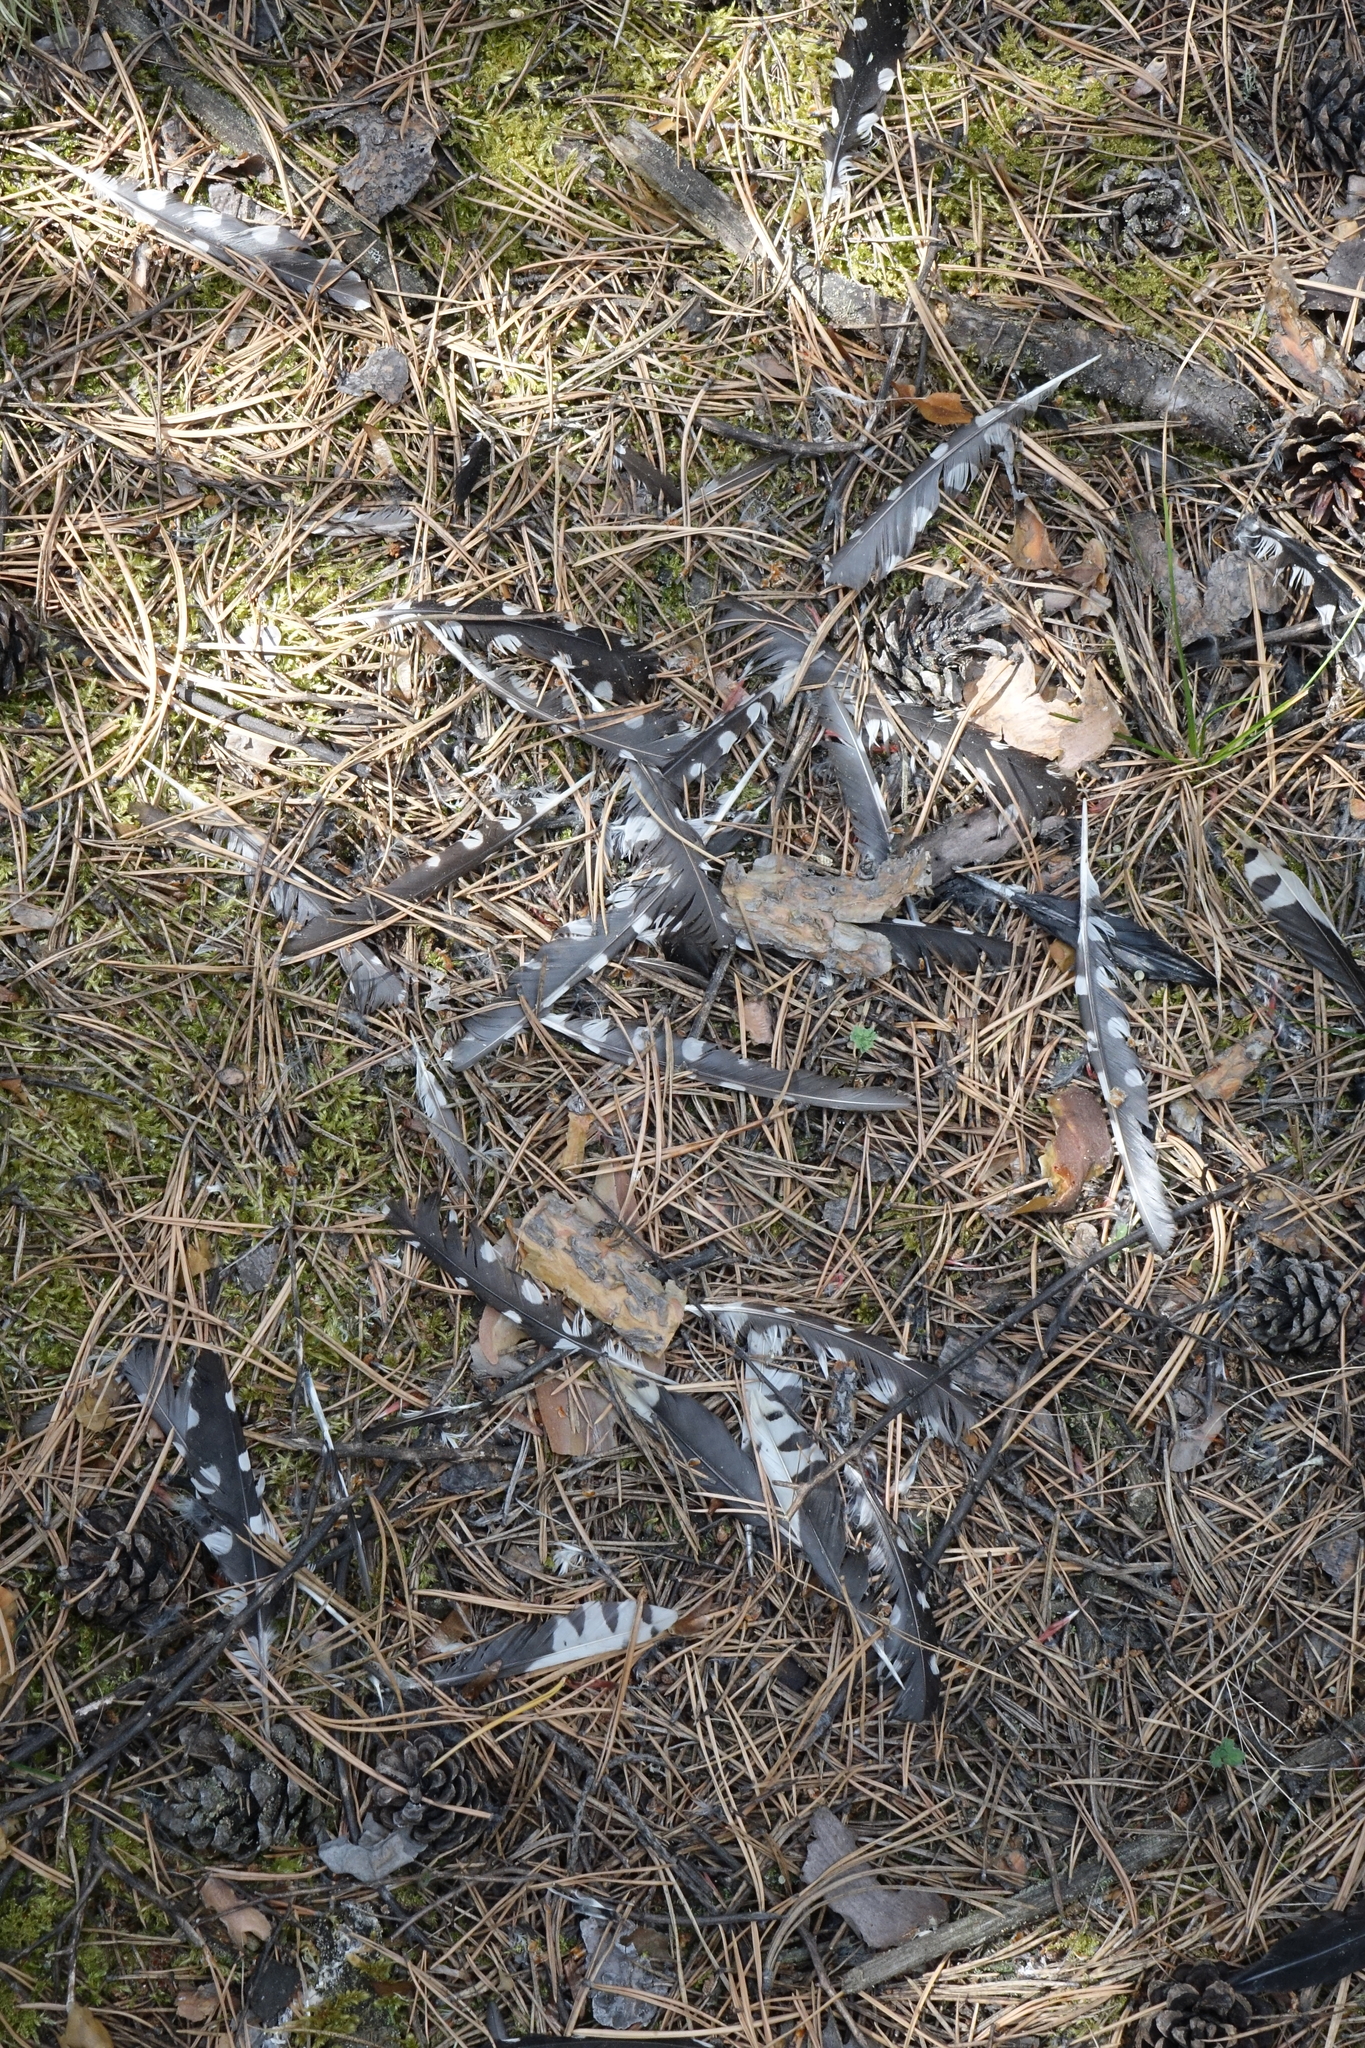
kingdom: Animalia
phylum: Chordata
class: Aves
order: Piciformes
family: Picidae
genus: Dendrocopos
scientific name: Dendrocopos major
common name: Great spotted woodpecker
